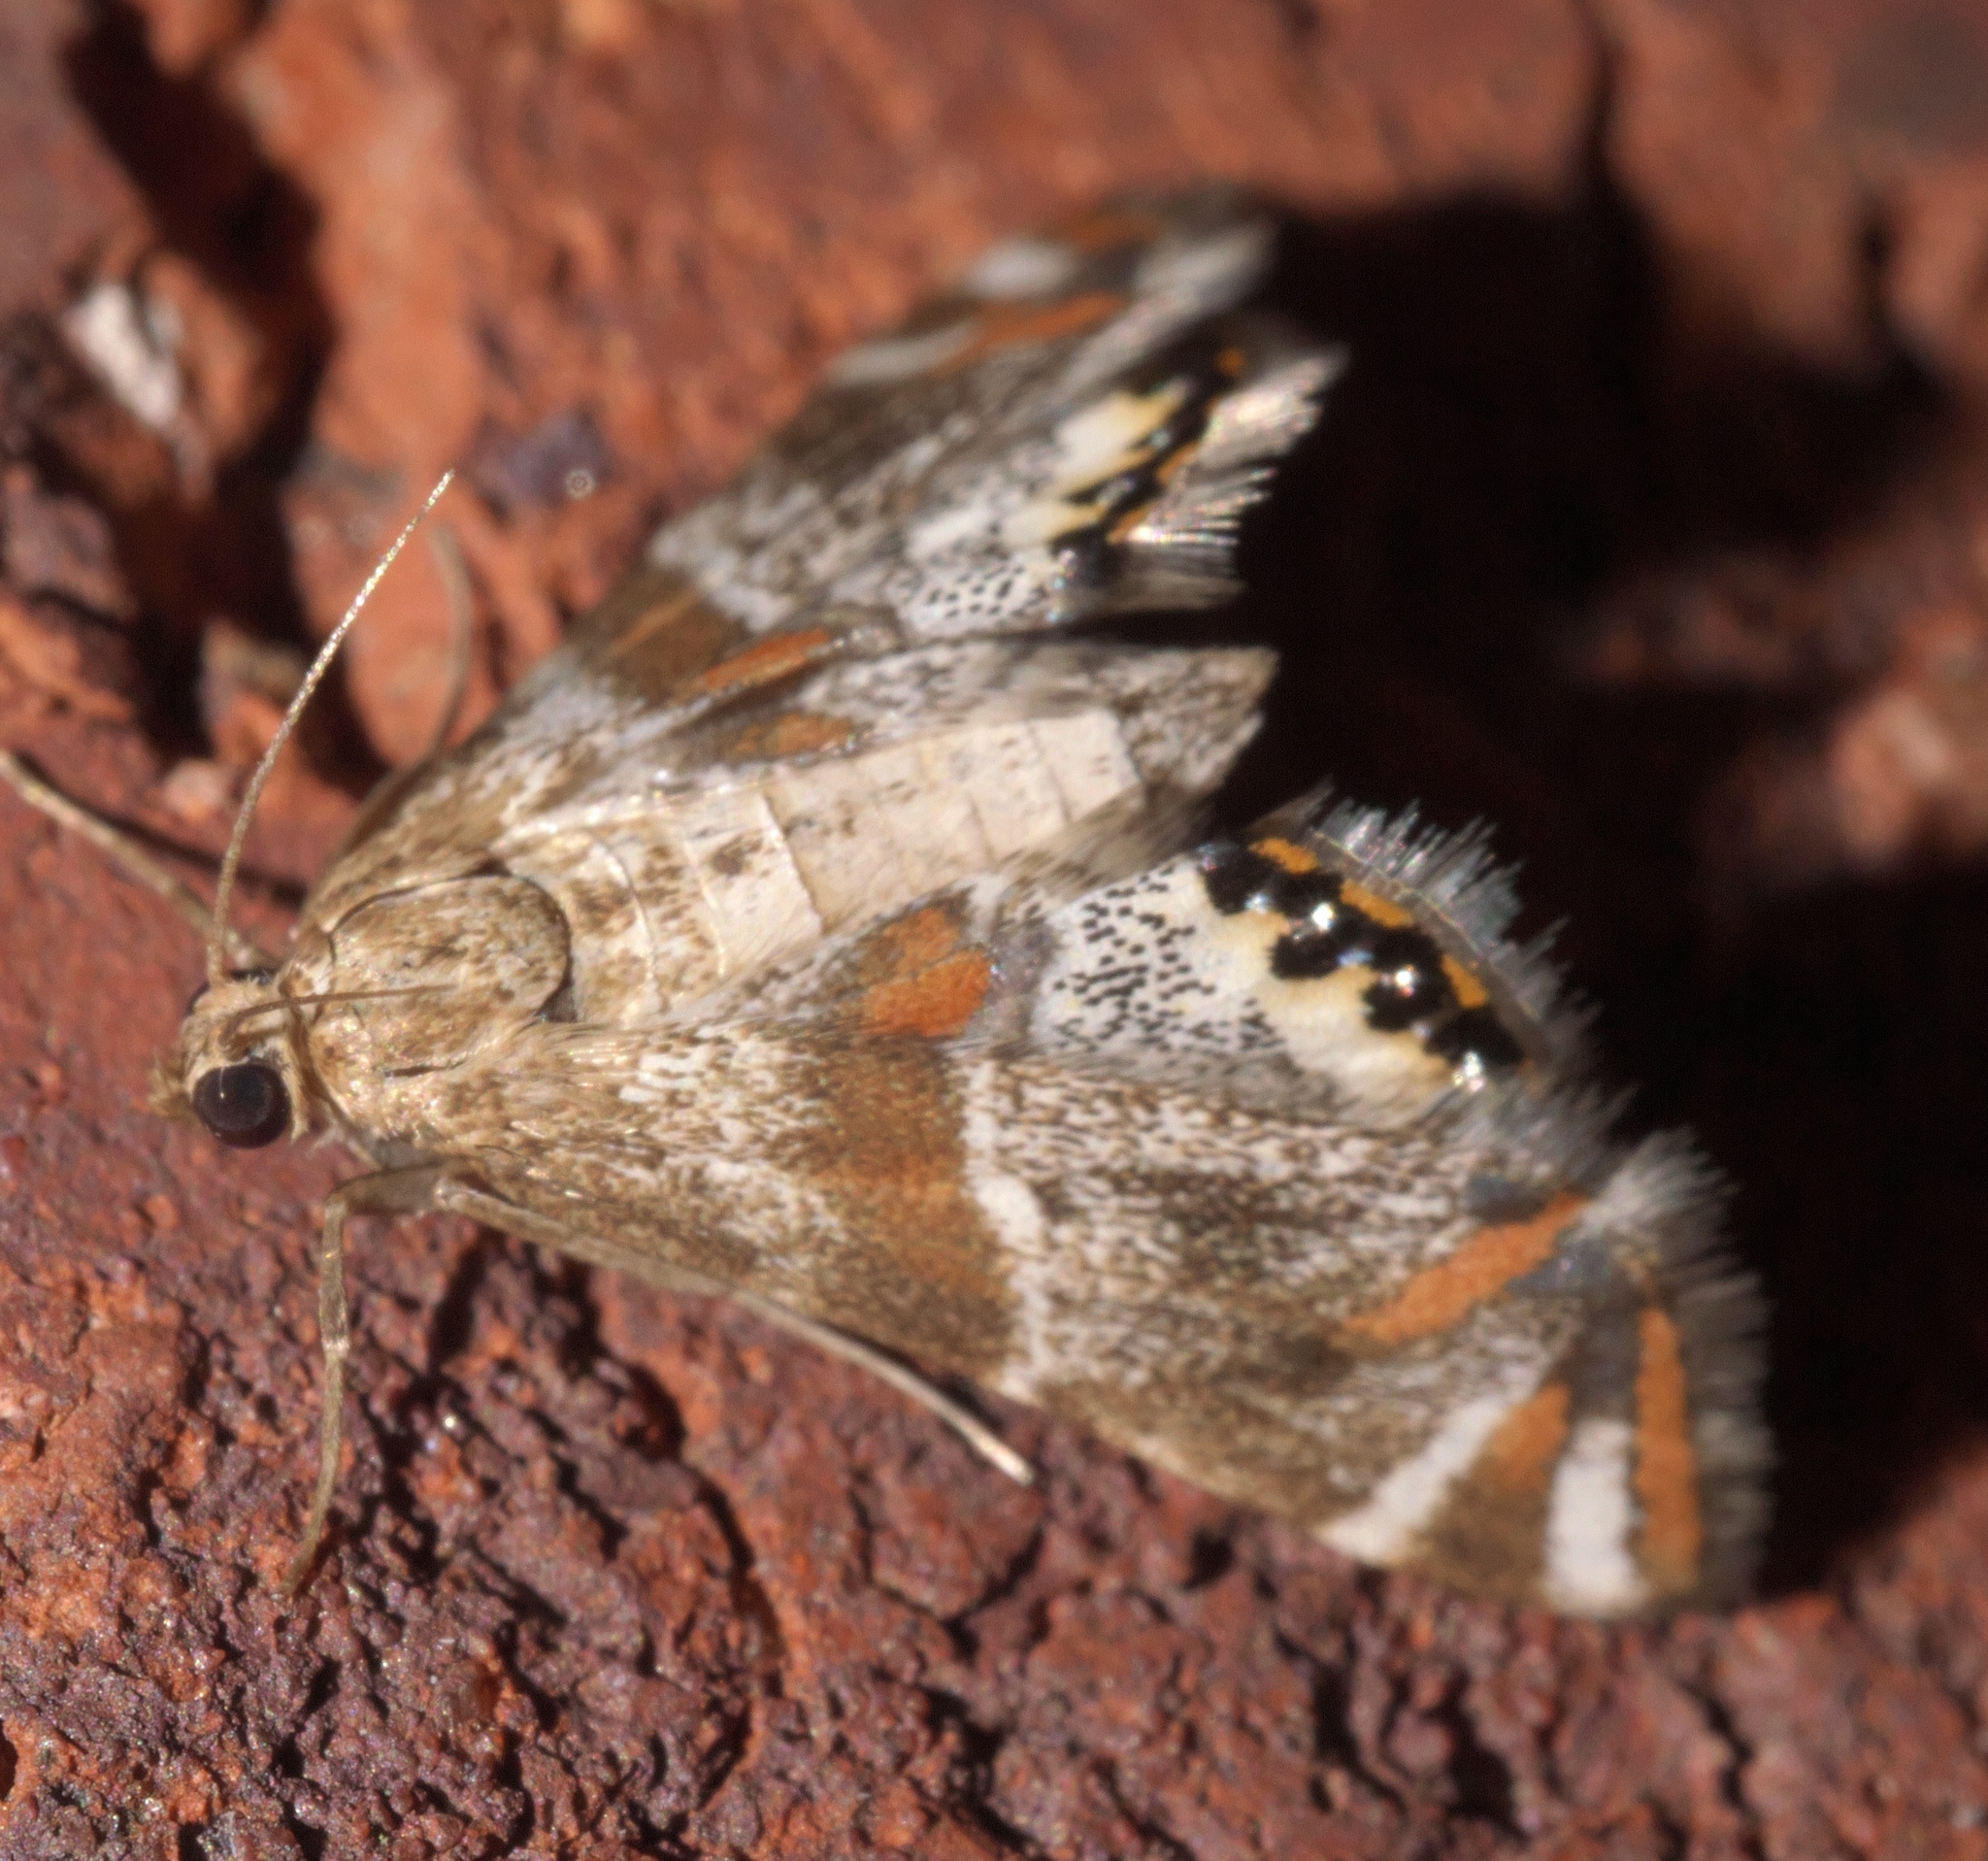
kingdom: Animalia
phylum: Arthropoda
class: Insecta
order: Lepidoptera
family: Crambidae
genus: Petrophila
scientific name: Petrophila jaliscalis
